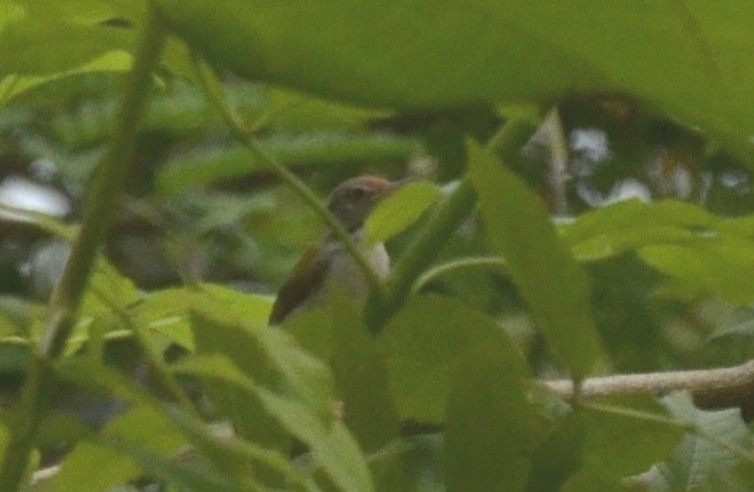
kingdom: Animalia
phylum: Chordata
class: Aves
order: Passeriformes
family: Cisticolidae
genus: Orthotomus
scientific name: Orthotomus sutorius
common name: Common tailorbird
